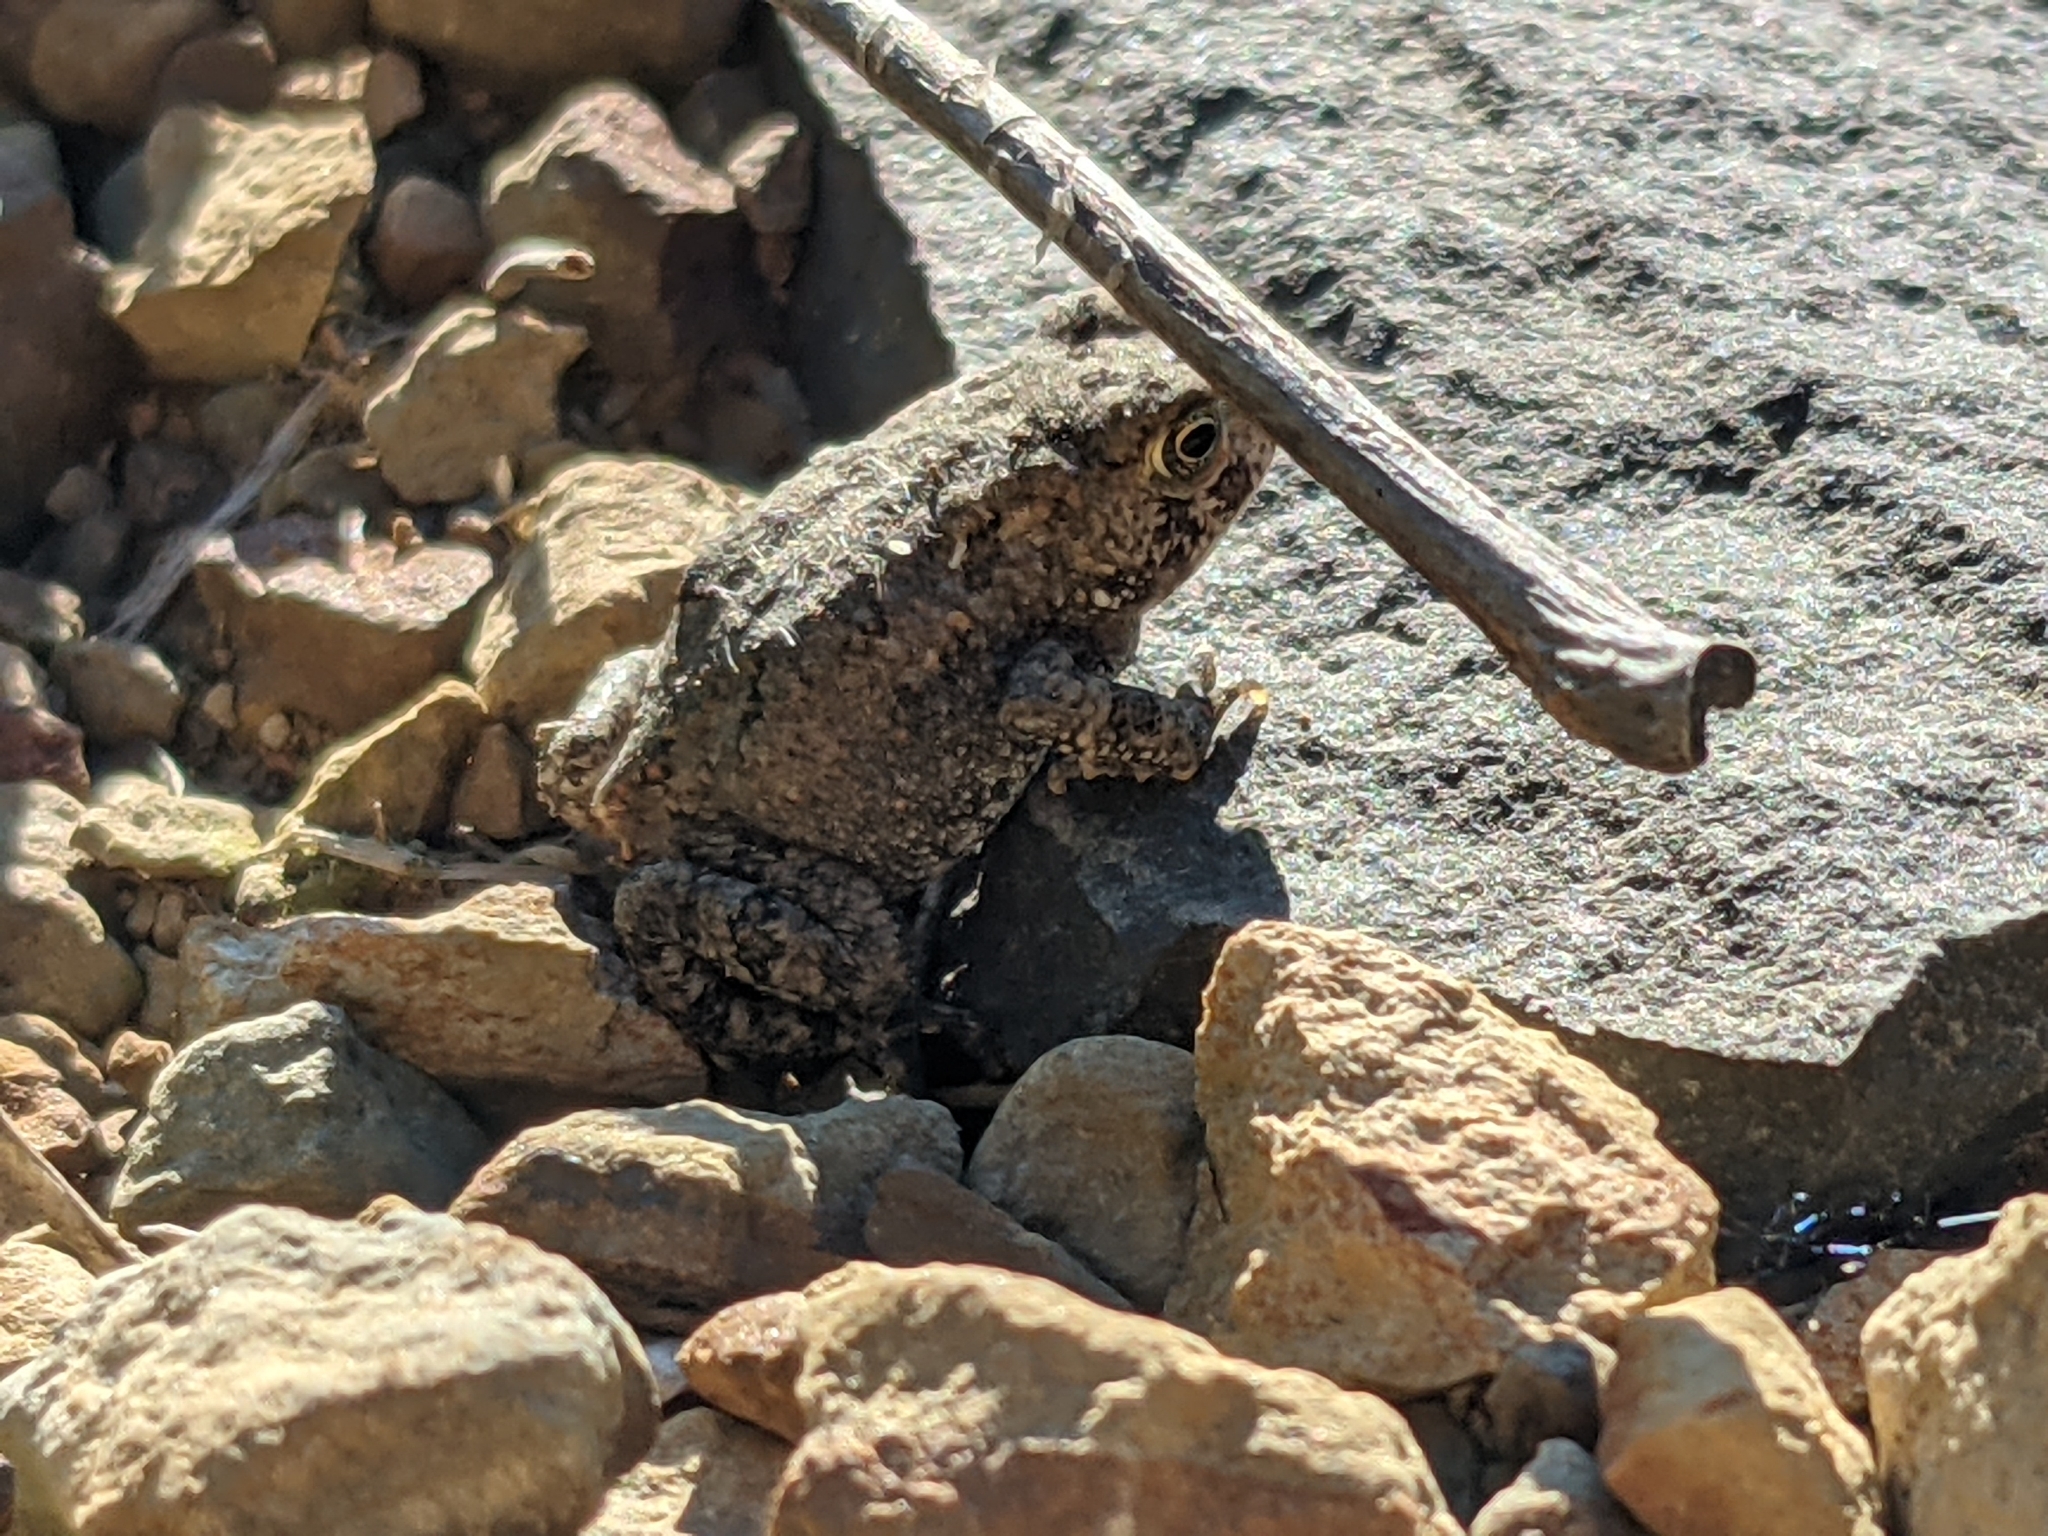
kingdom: Animalia
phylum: Chordata
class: Amphibia
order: Anura
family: Bufonidae
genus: Anaxyrus
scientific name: Anaxyrus americanus
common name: American toad
